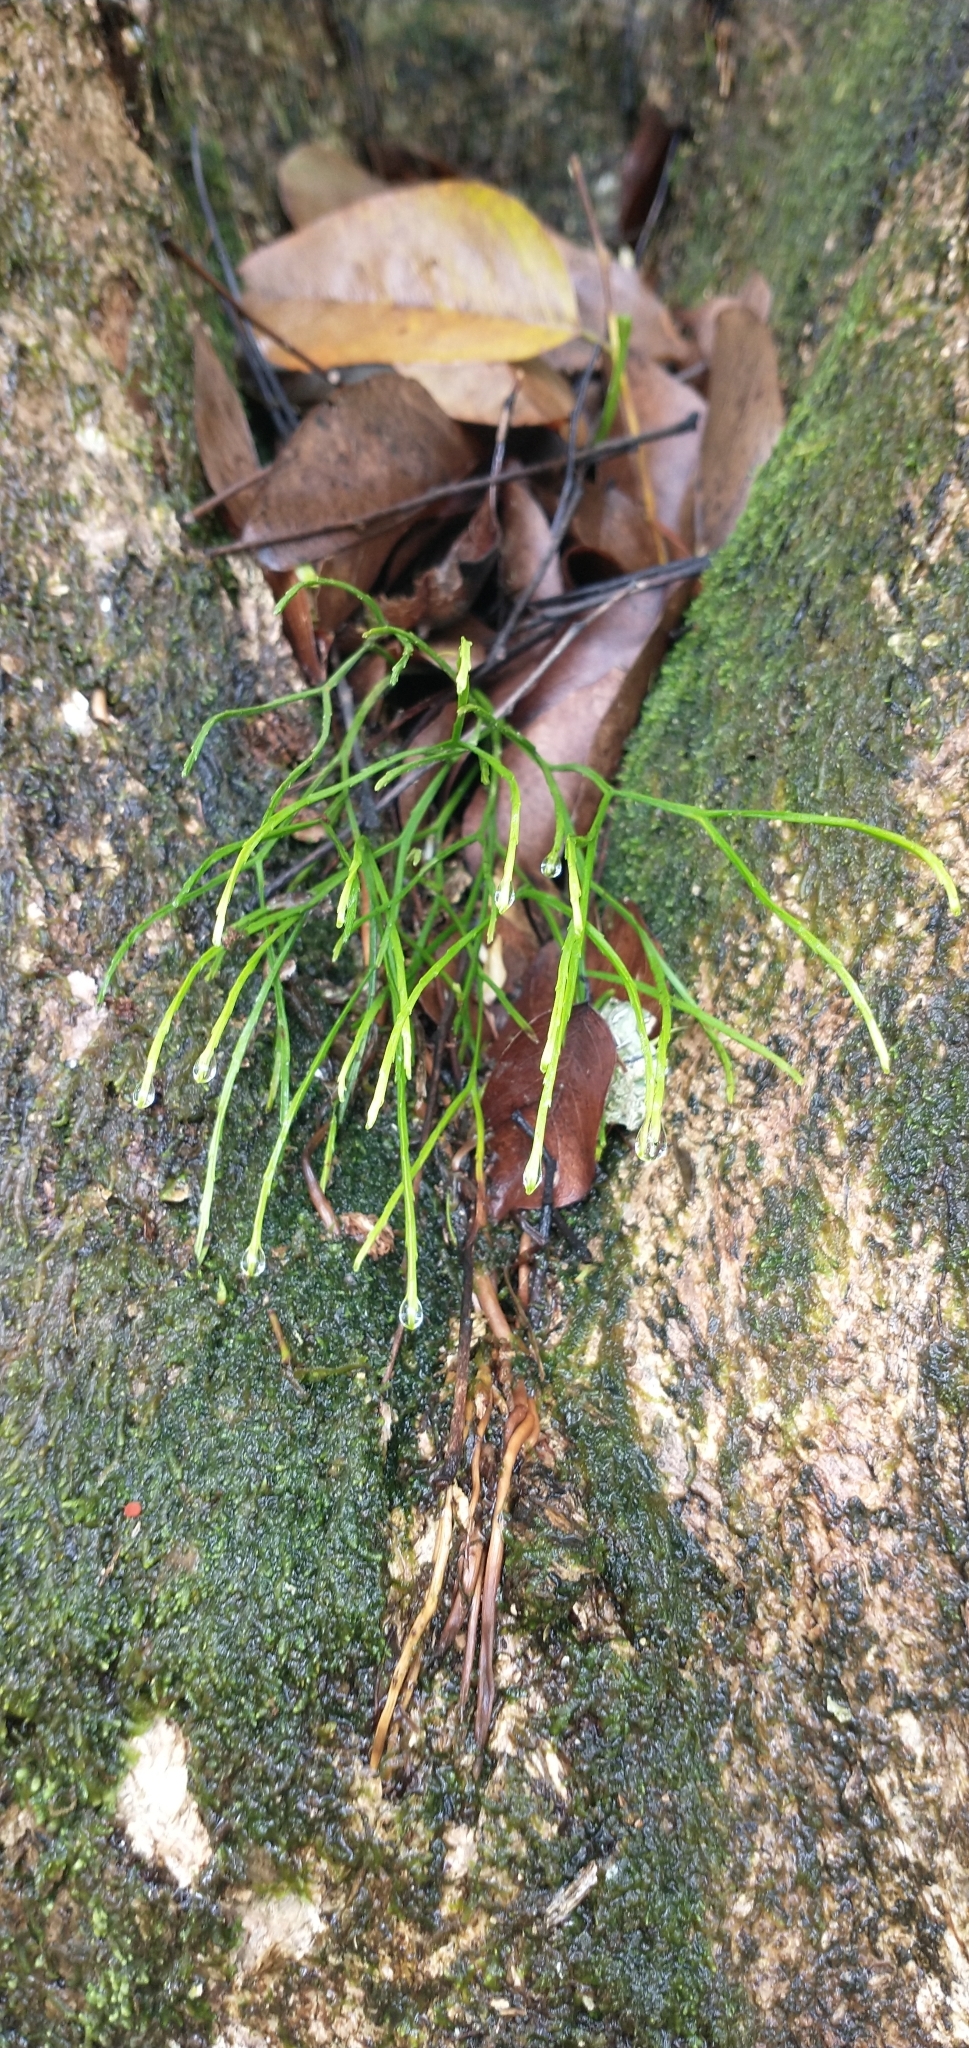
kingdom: Plantae
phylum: Tracheophyta
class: Polypodiopsida
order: Psilotales
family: Psilotaceae
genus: Psilotum
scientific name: Psilotum nudum
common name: Skeleton fork fern
